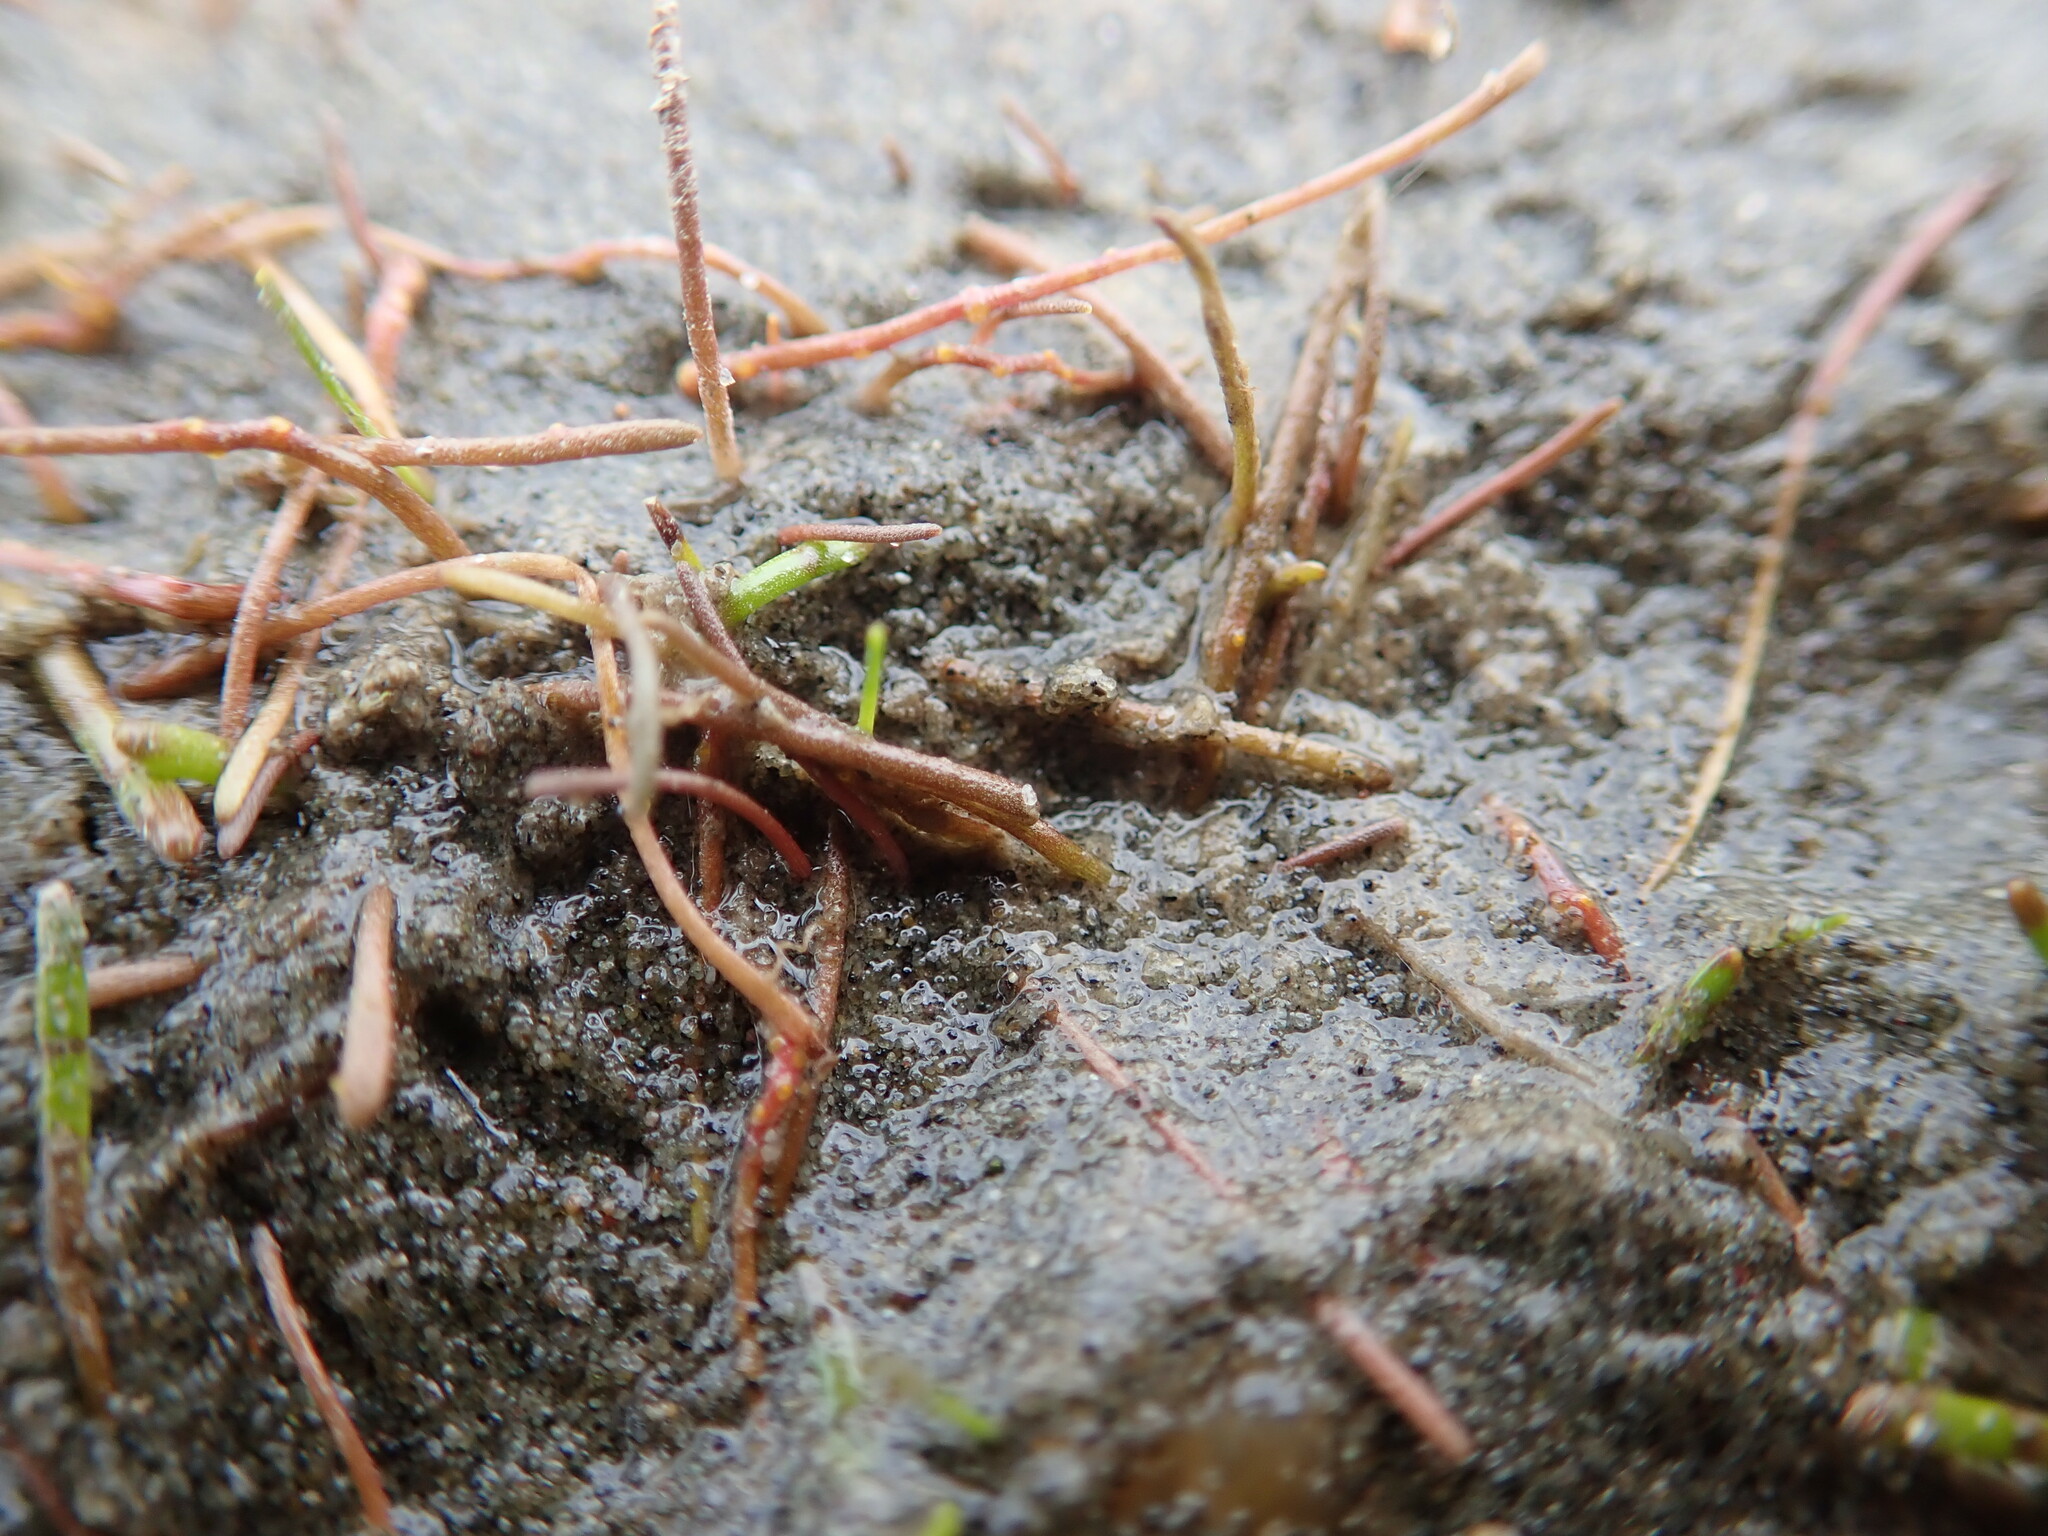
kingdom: Fungi
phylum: Chytridiomycota
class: Chytridiomycetes
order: Chytridiales
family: Synchytriaceae
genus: Synchytrium
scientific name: Synchytrium limosellae
